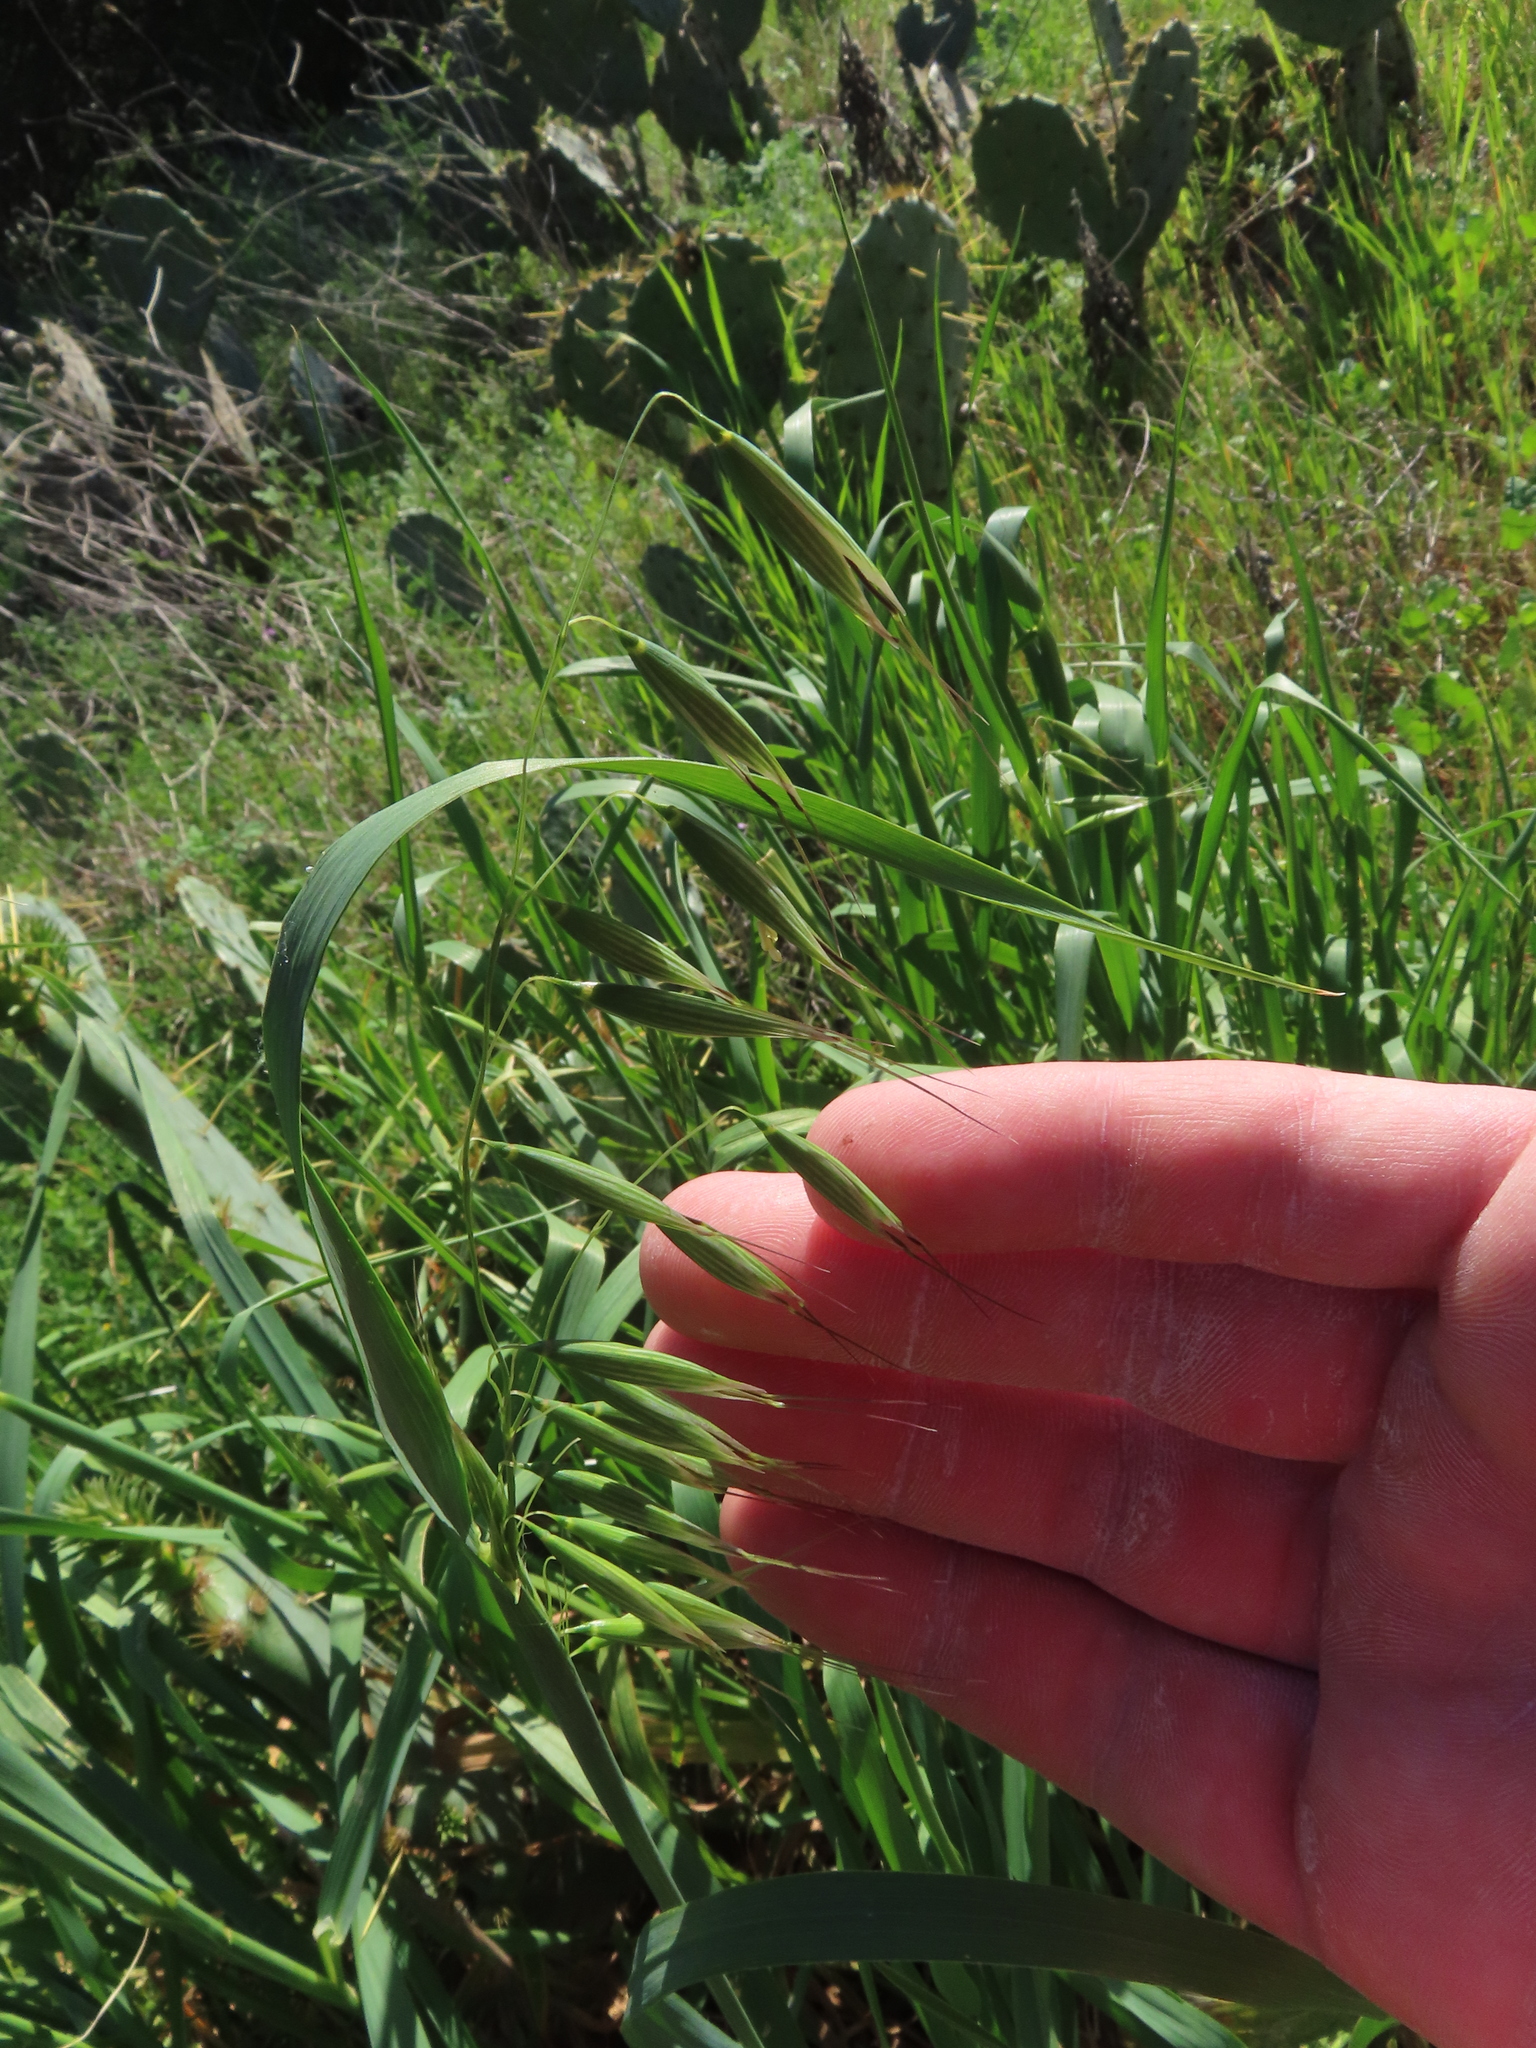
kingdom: Plantae
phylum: Tracheophyta
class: Liliopsida
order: Poales
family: Poaceae
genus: Avena
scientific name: Avena fatua
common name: Wild oat
